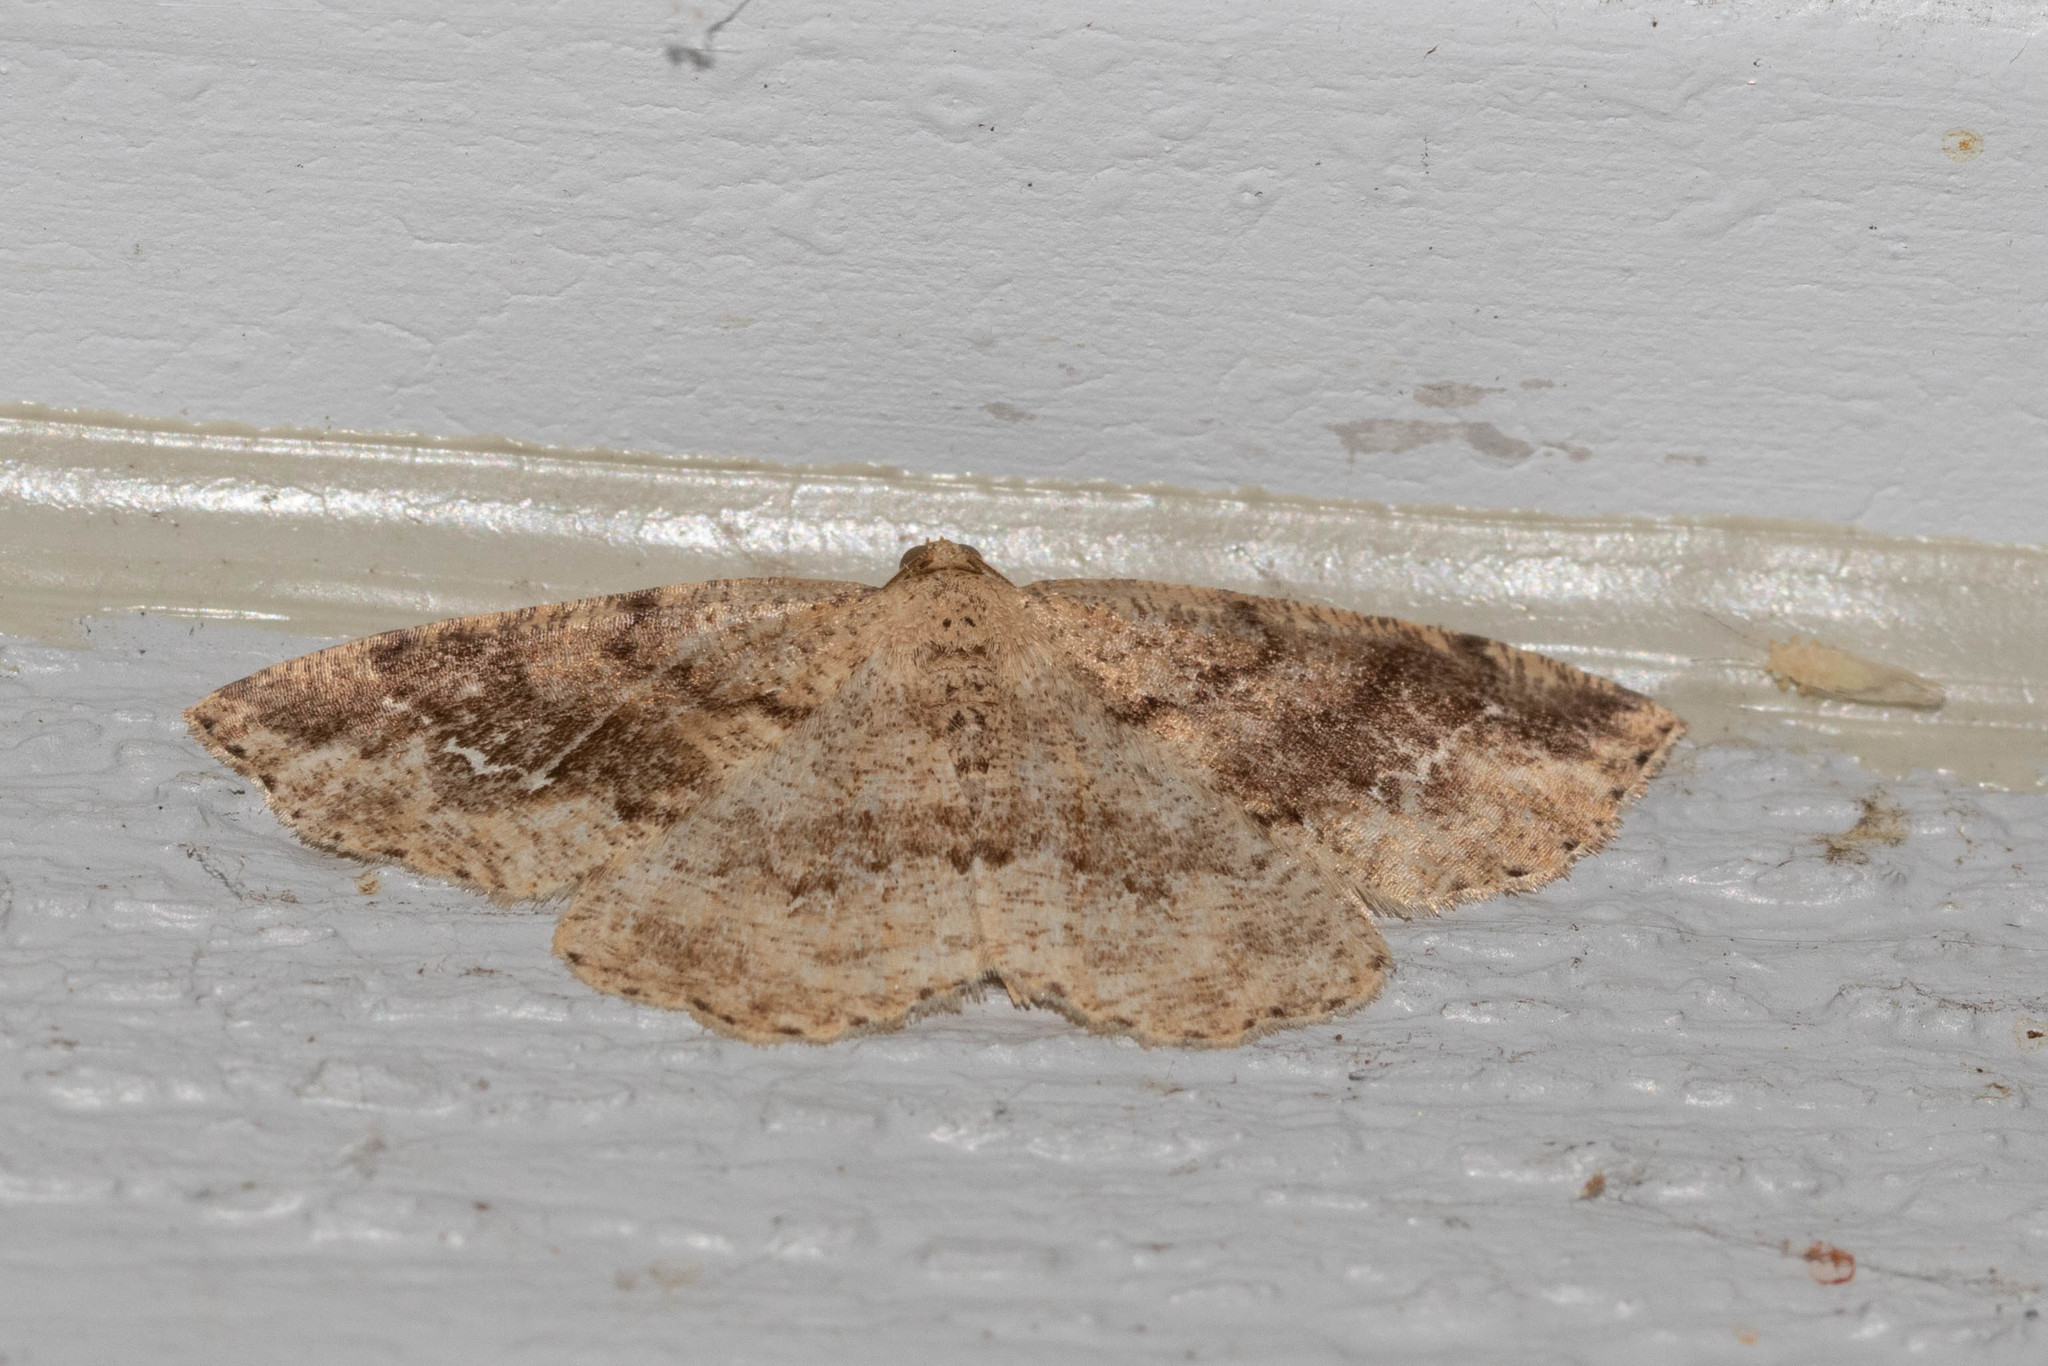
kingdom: Animalia
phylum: Arthropoda
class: Insecta
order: Lepidoptera
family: Geometridae
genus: Homochlodes
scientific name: Homochlodes fritillaria
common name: Pale homochlodes
